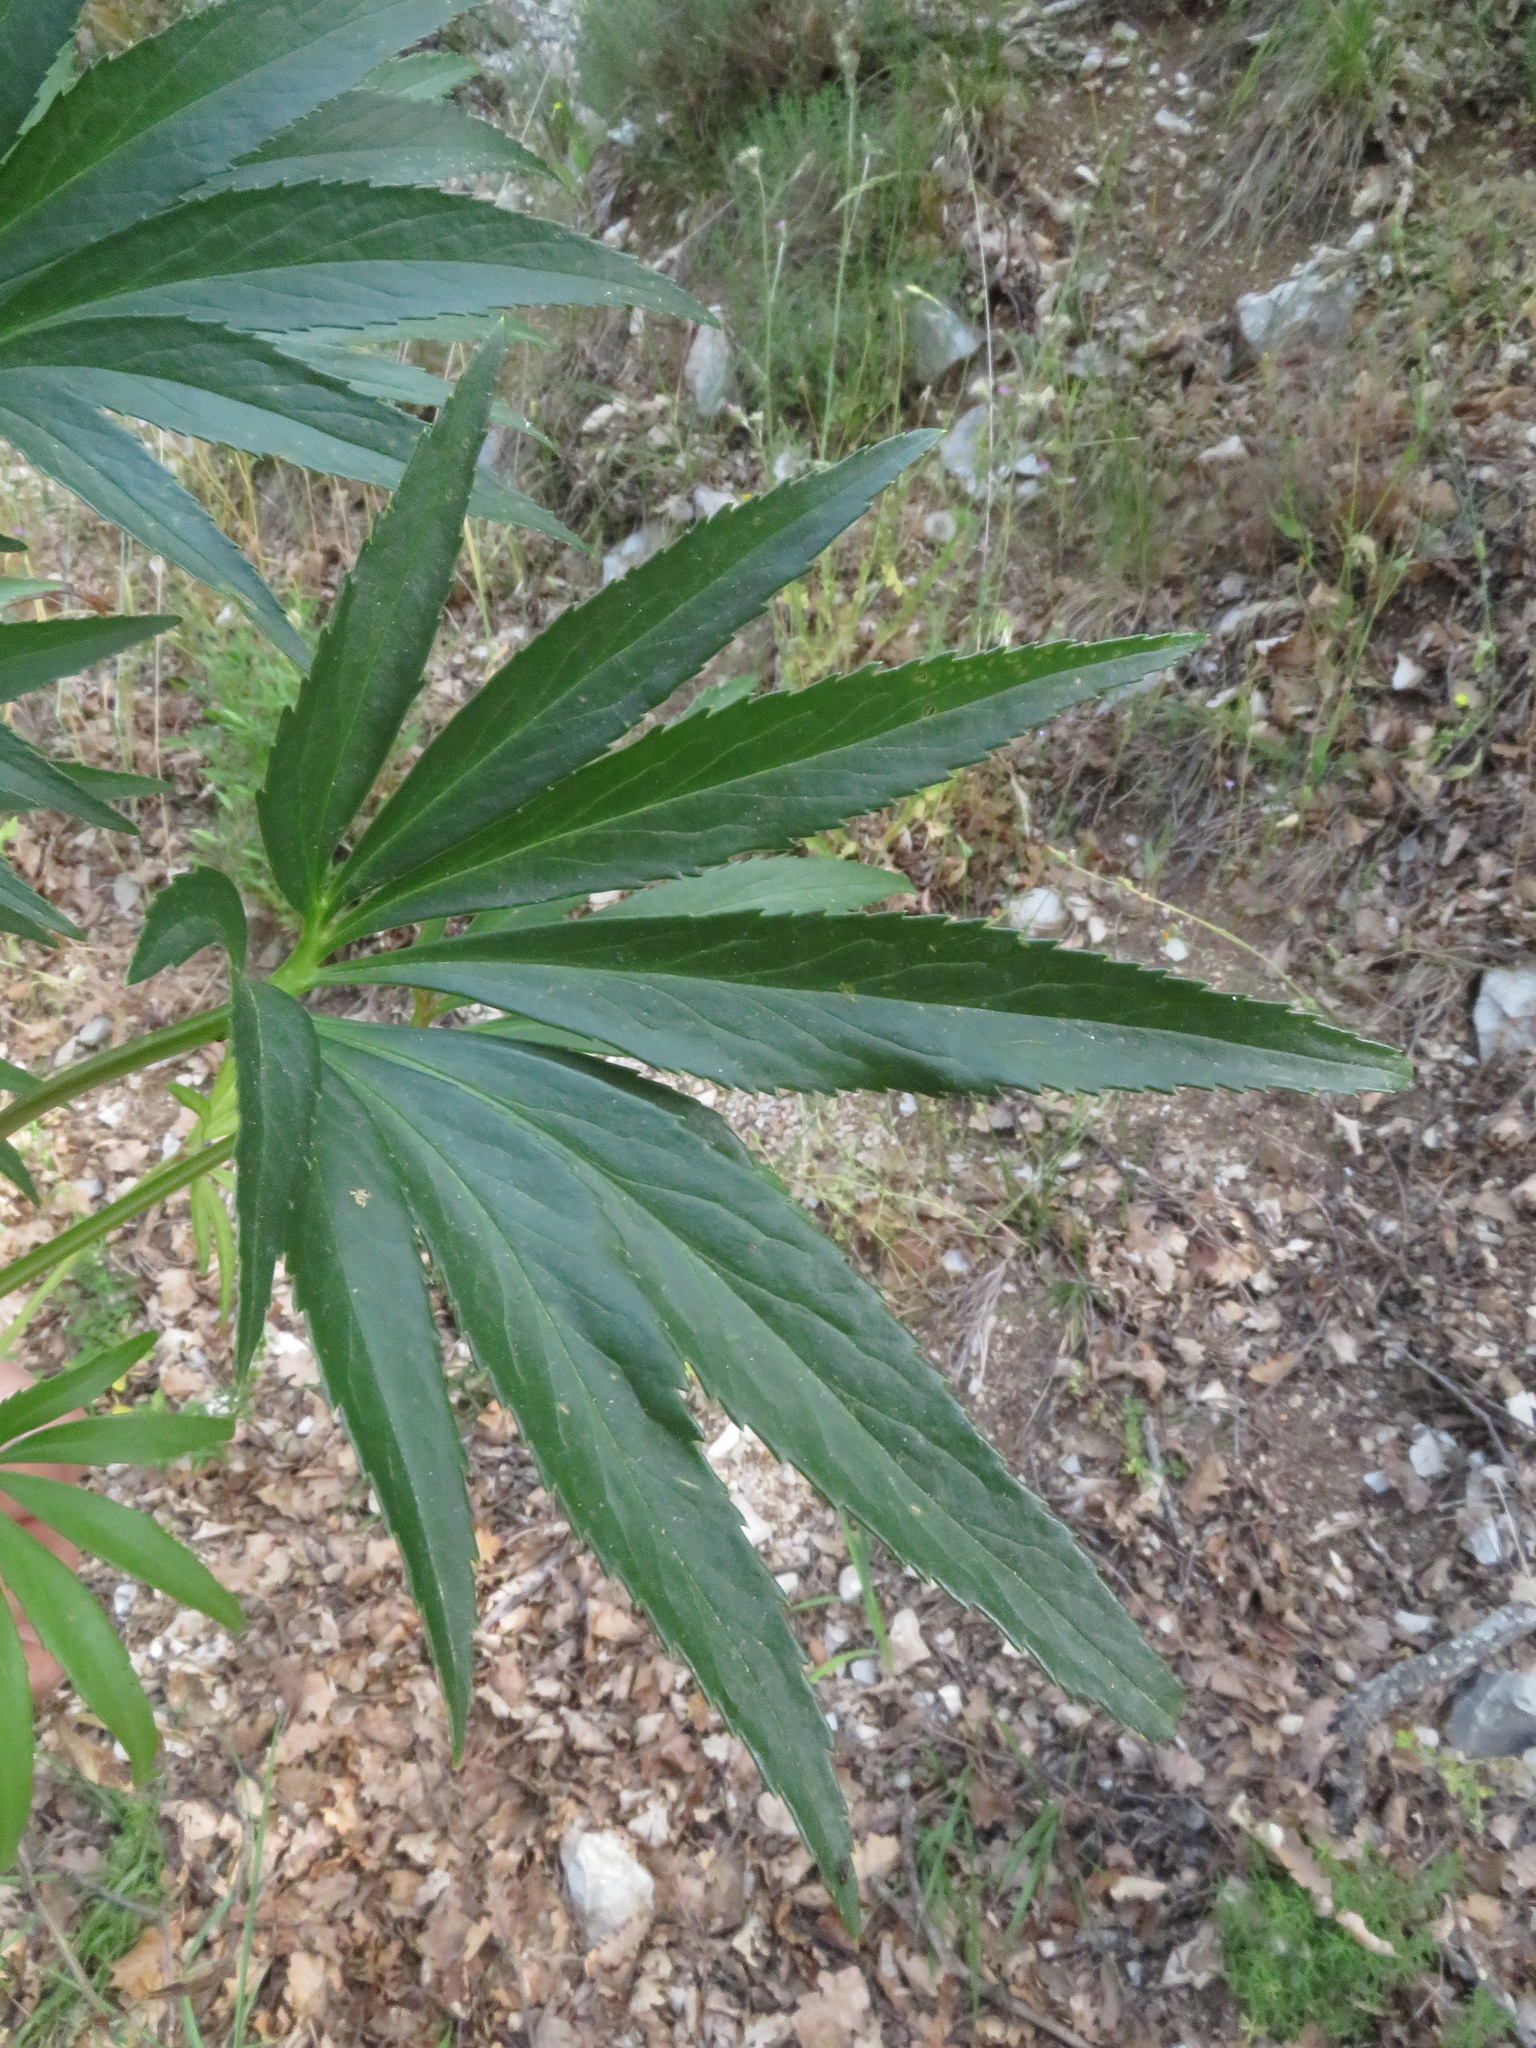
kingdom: Plantae
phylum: Tracheophyta
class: Magnoliopsida
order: Ranunculales
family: Ranunculaceae
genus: Helleborus
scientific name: Helleborus foetidus
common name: Stinking hellebore
